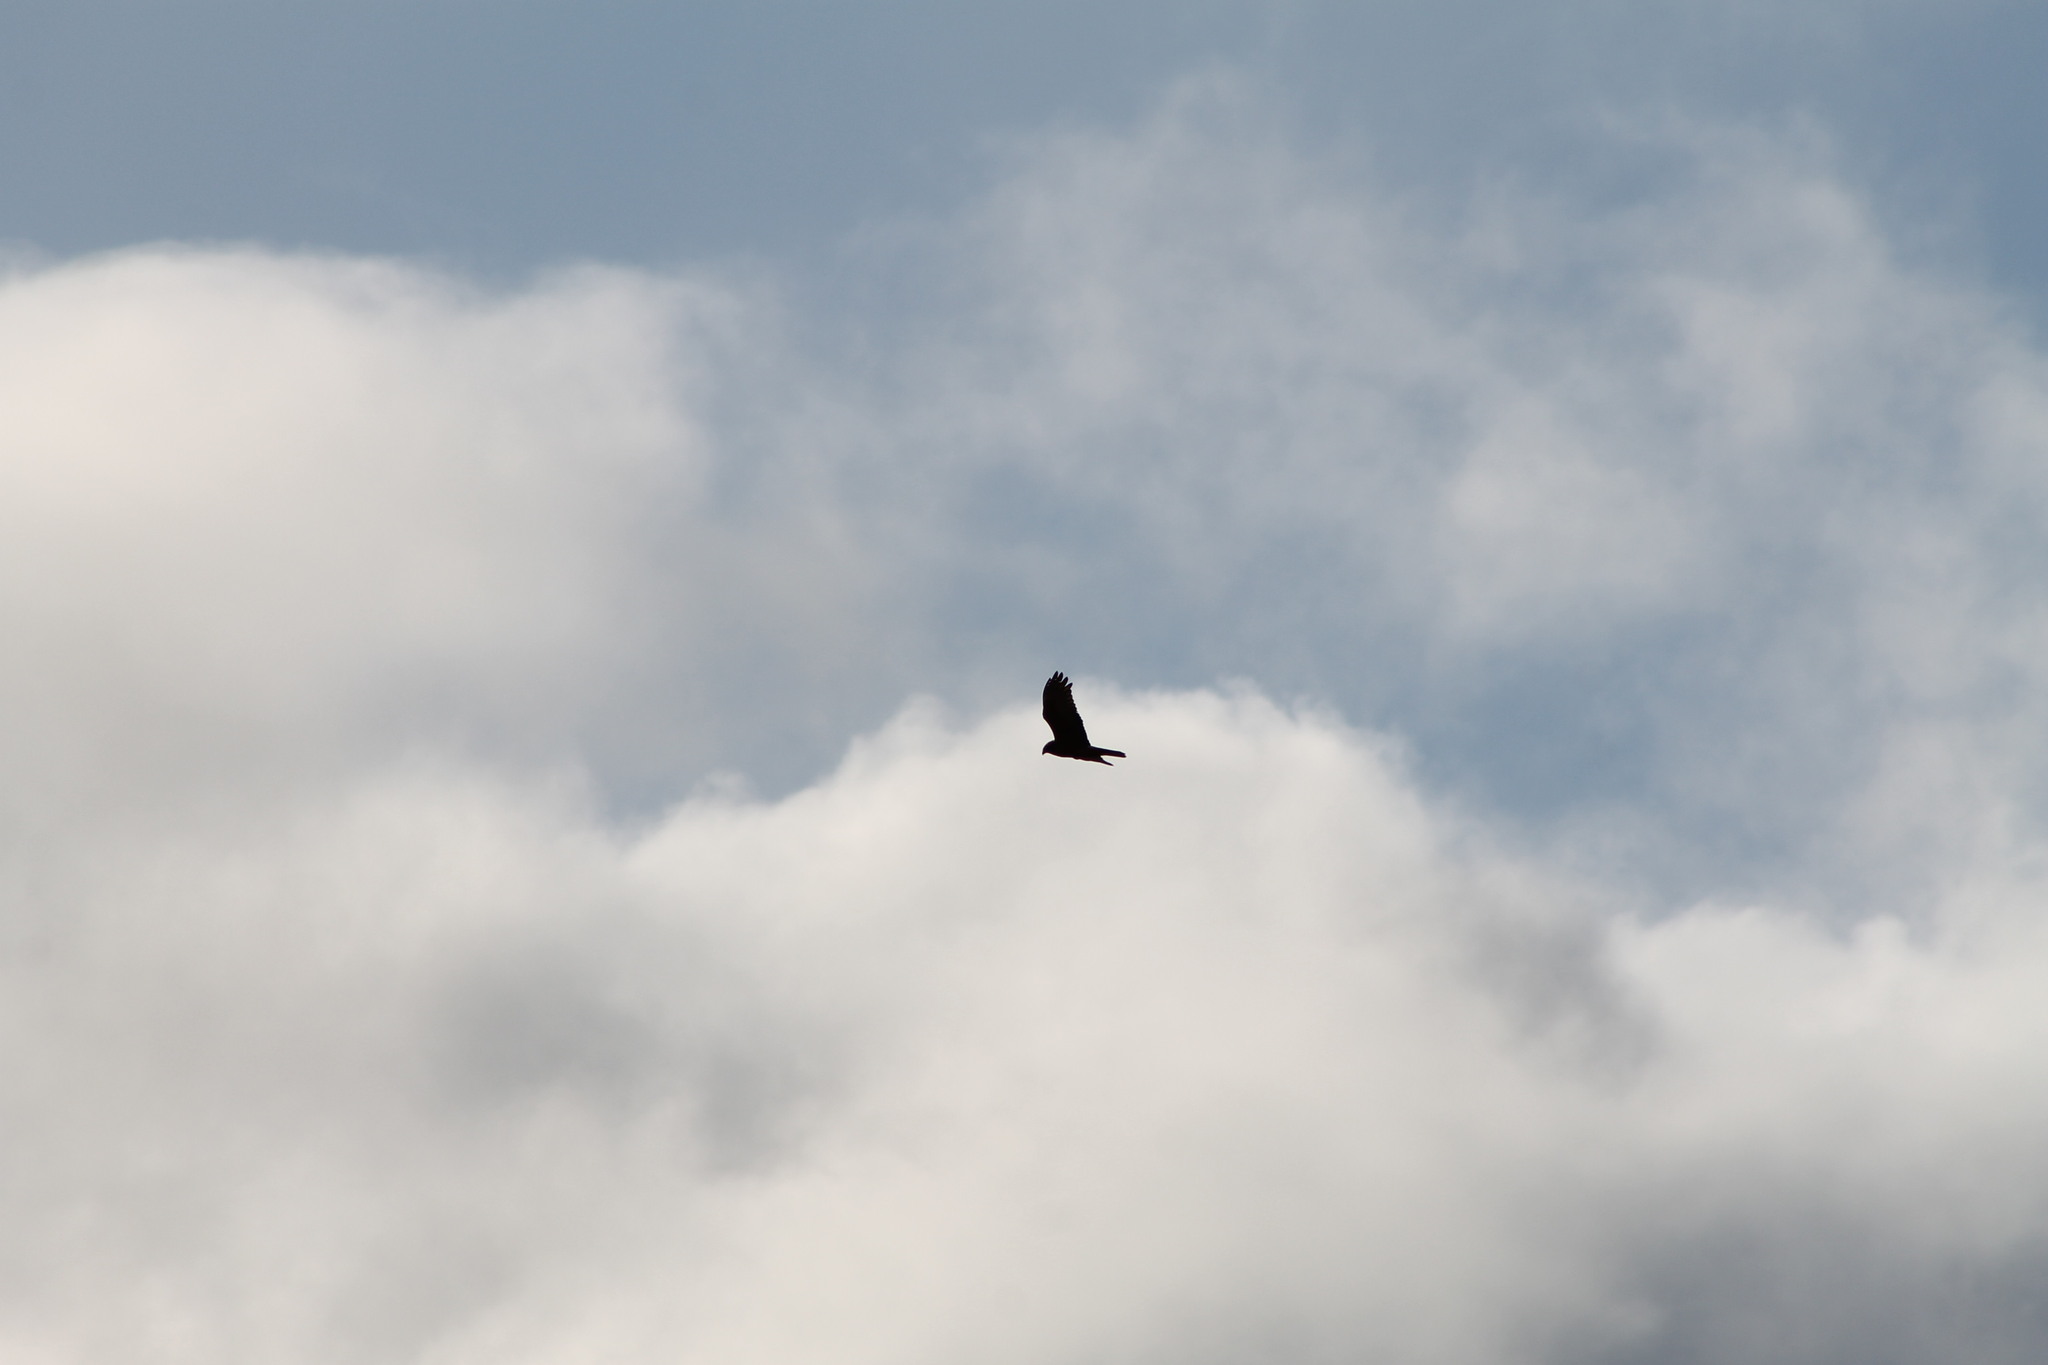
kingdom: Animalia
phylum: Chordata
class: Aves
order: Accipitriformes
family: Accipitridae
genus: Circus
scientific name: Circus approximans
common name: Swamp harrier
